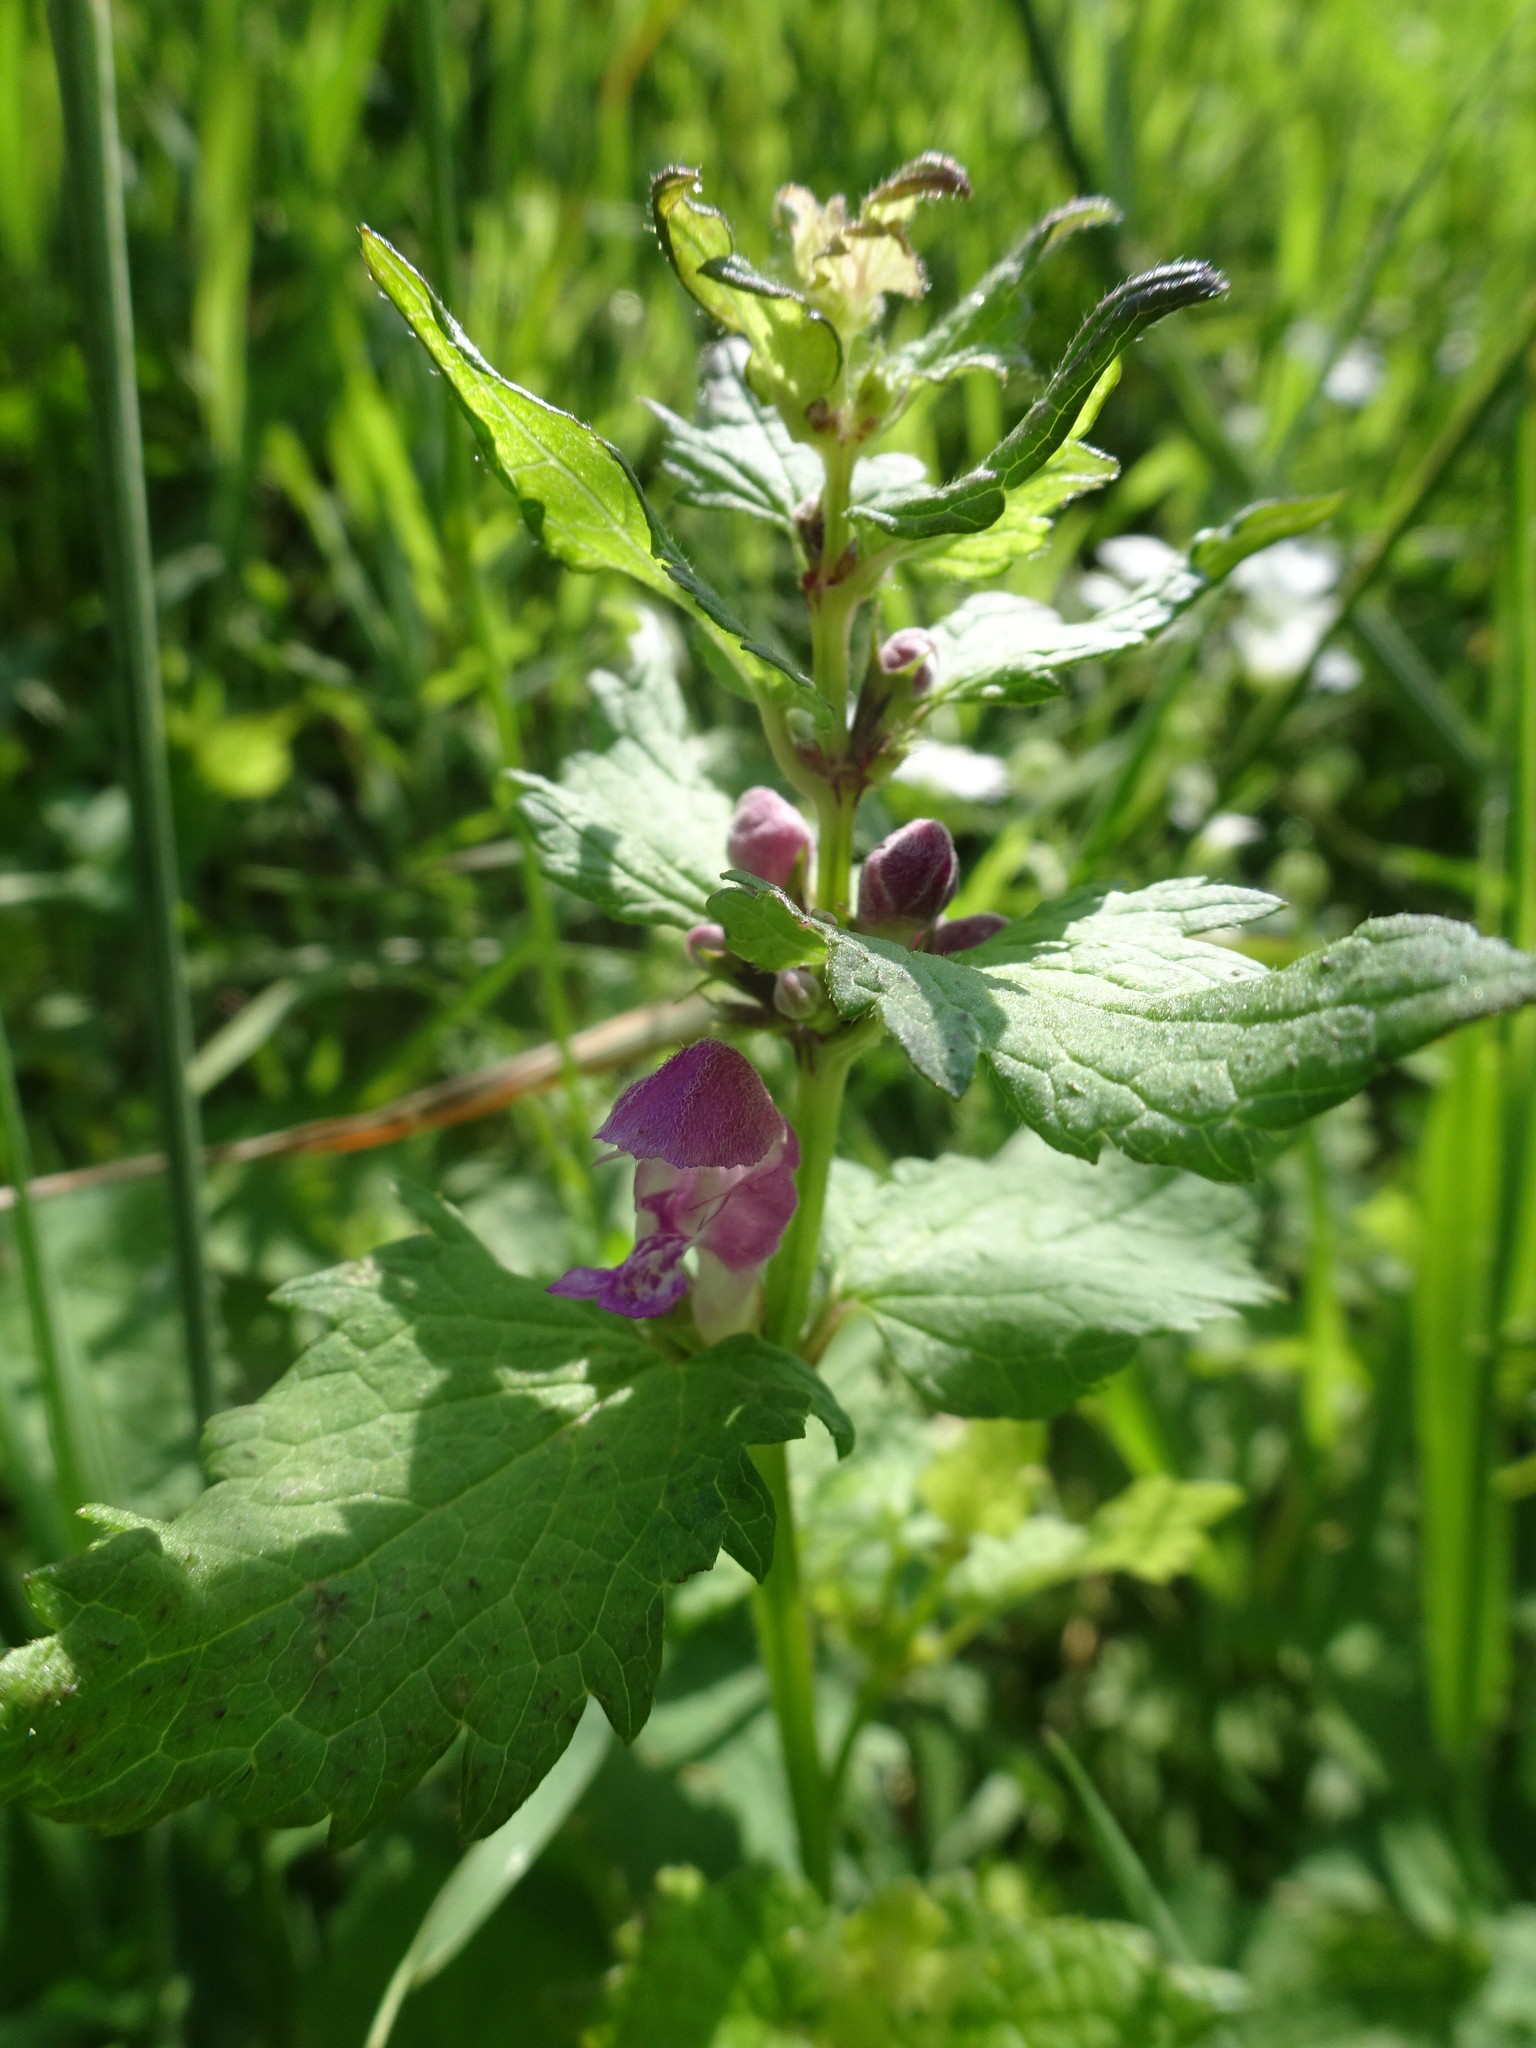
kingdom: Plantae
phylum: Tracheophyta
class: Magnoliopsida
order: Lamiales
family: Lamiaceae
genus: Lamium
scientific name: Lamium maculatum
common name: Spotted dead-nettle
